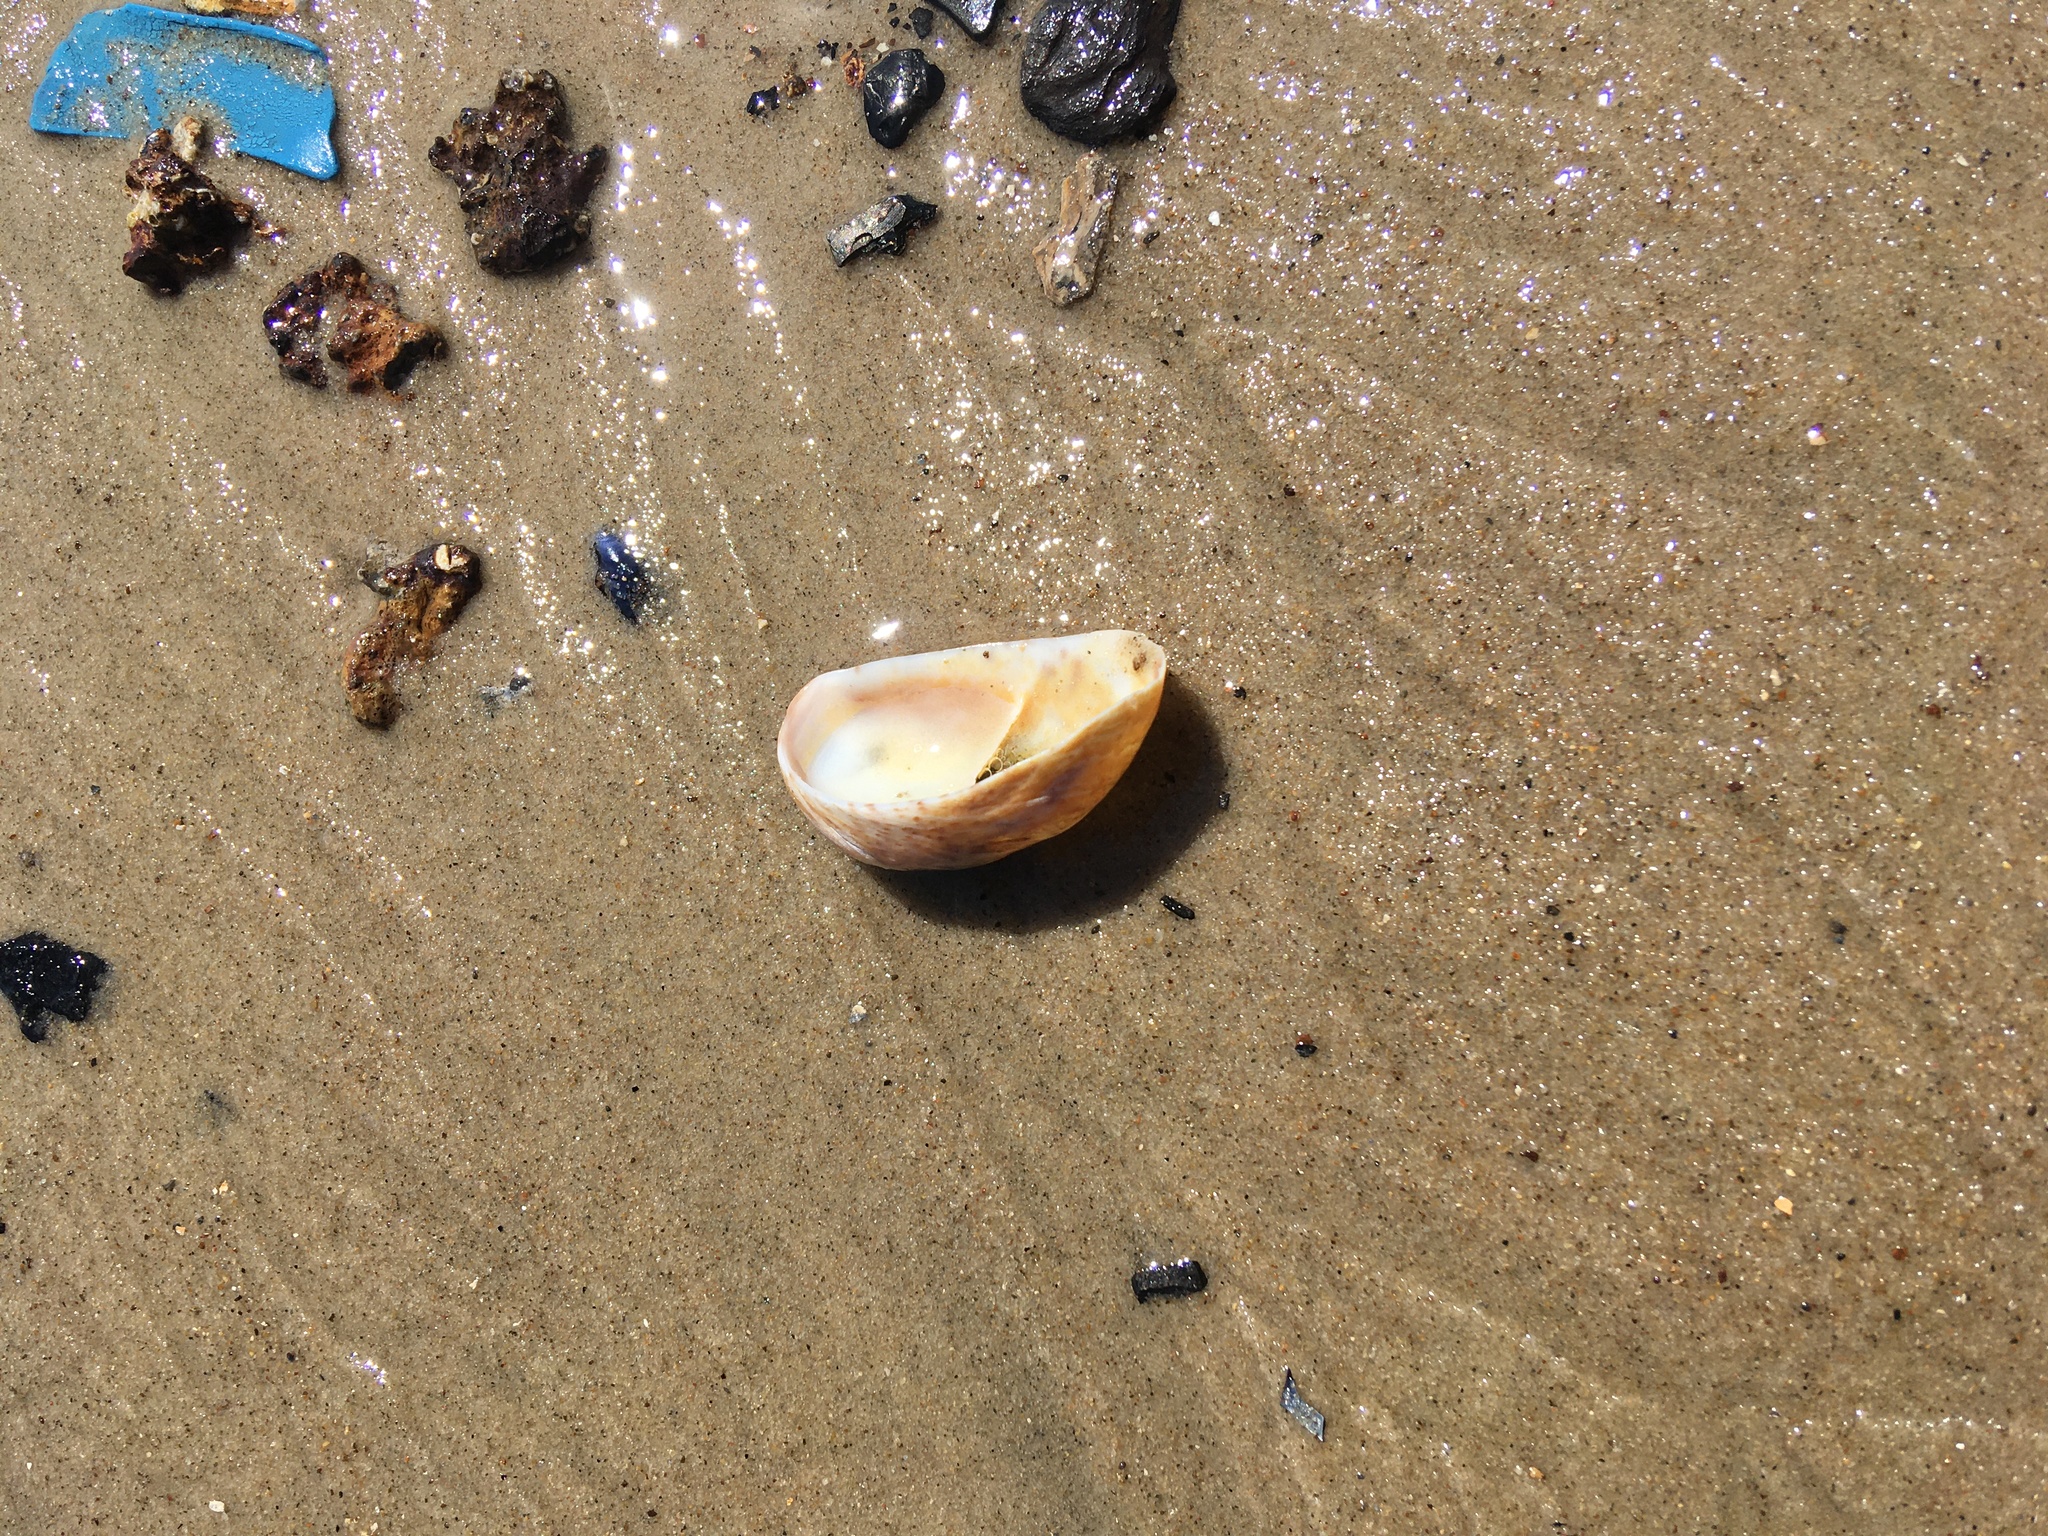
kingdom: Animalia
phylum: Mollusca
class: Gastropoda
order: Littorinimorpha
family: Calyptraeidae
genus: Crepidula
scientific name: Crepidula fornicata
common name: Slipper limpet
